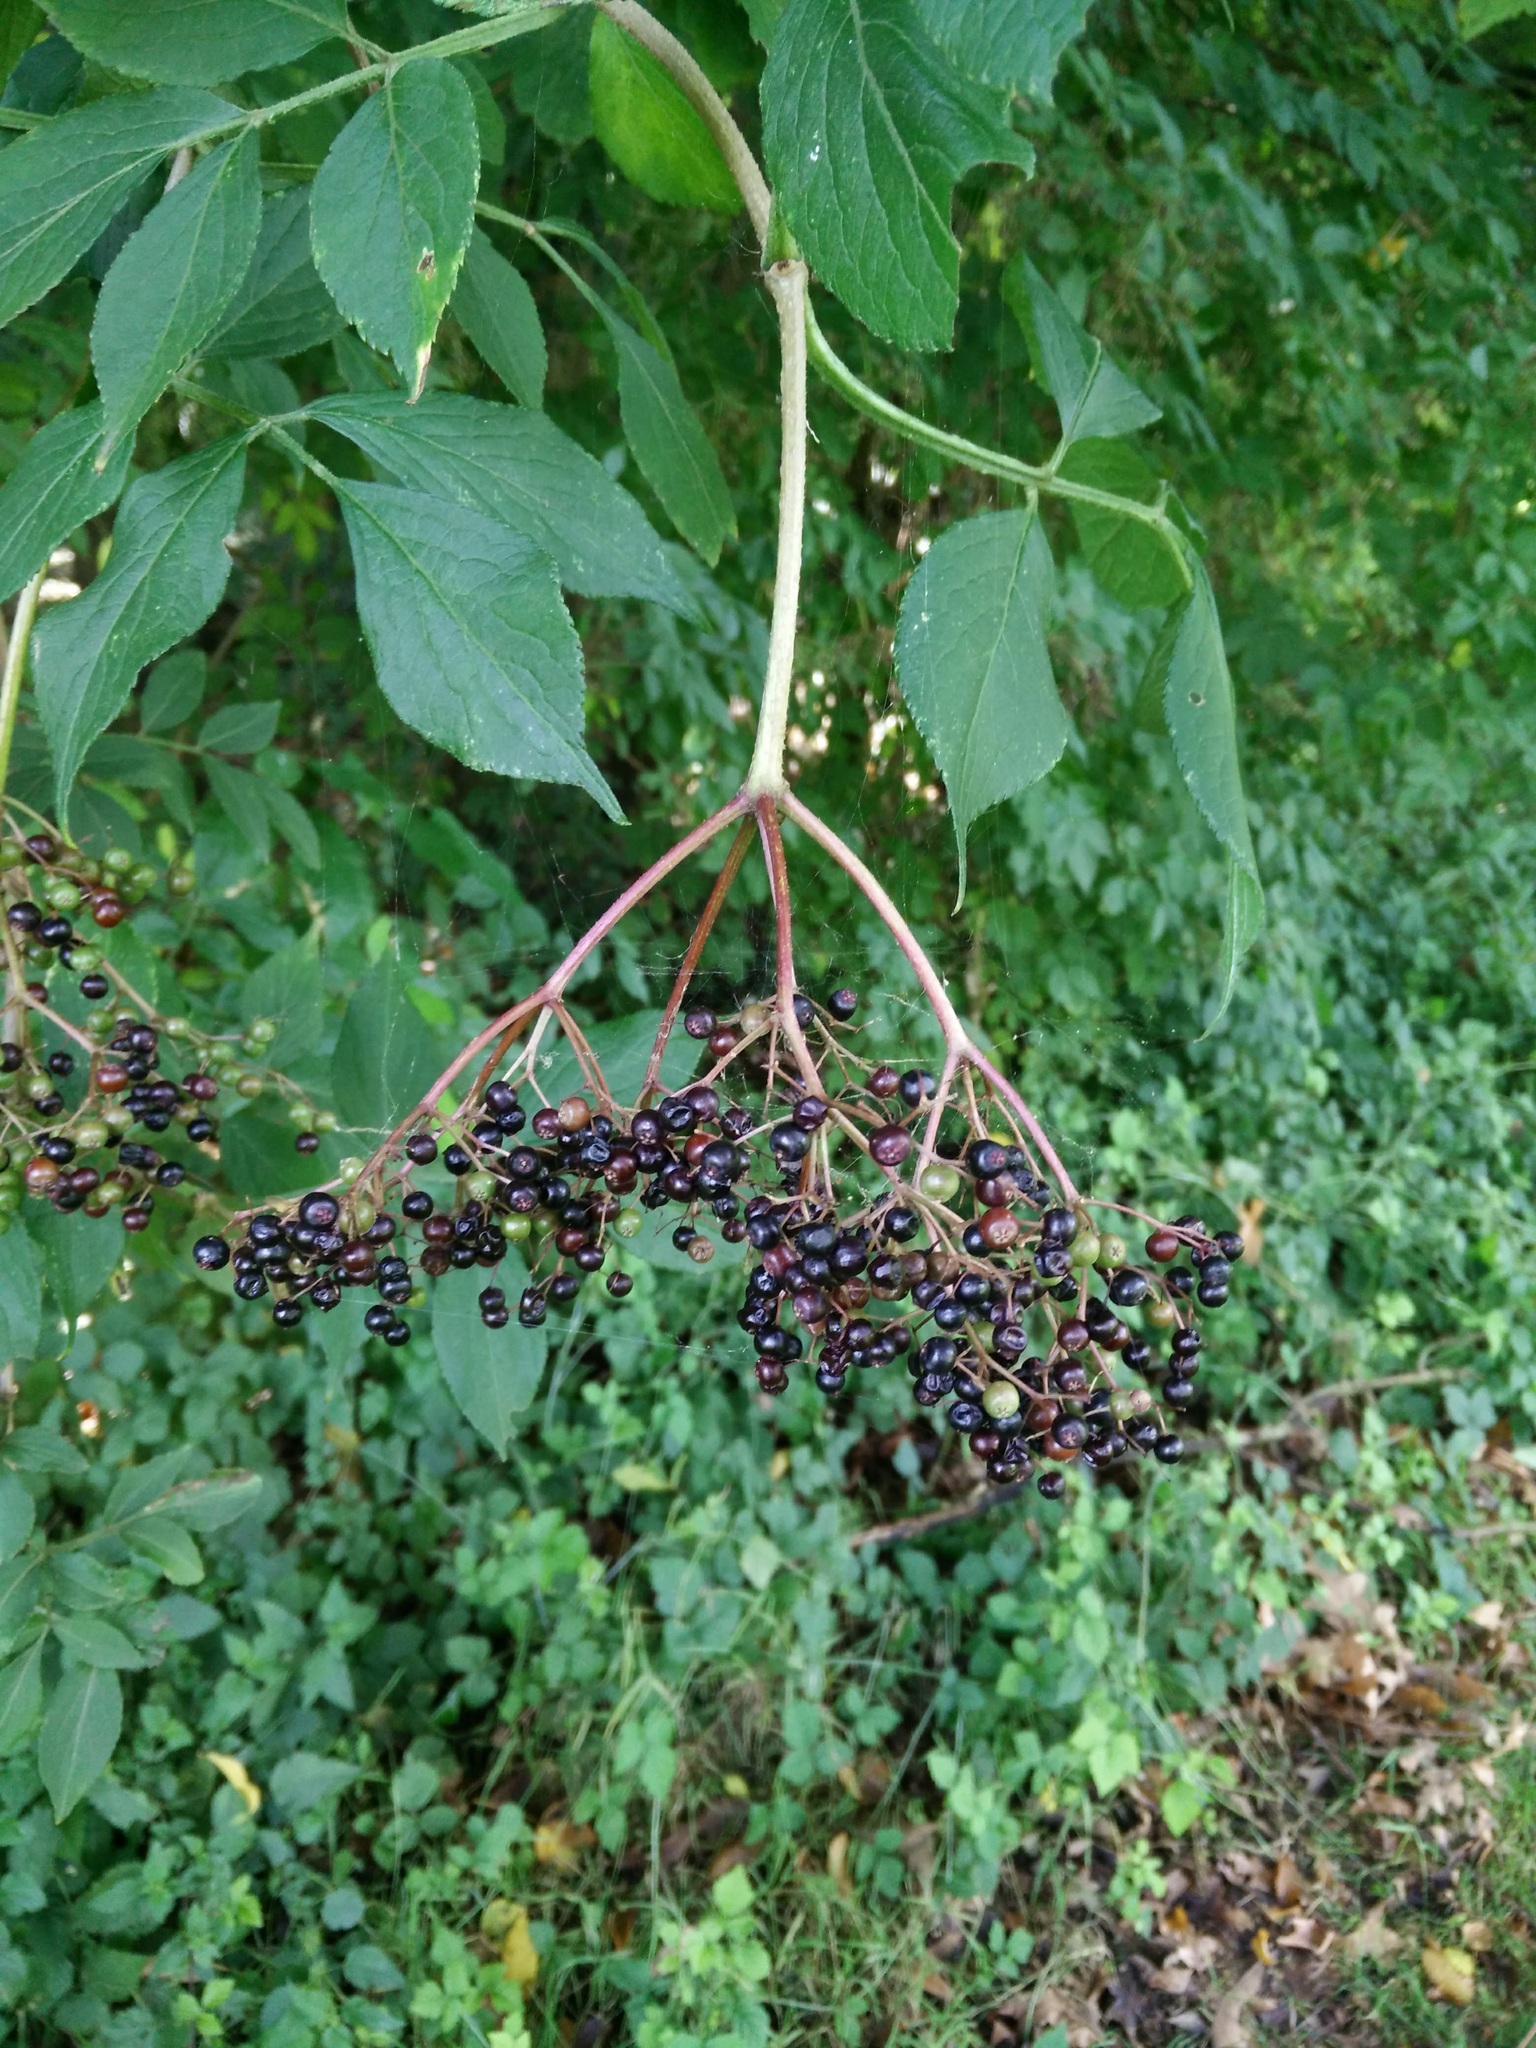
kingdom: Plantae
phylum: Tracheophyta
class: Magnoliopsida
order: Dipsacales
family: Viburnaceae
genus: Sambucus
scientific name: Sambucus nigra
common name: Elder
